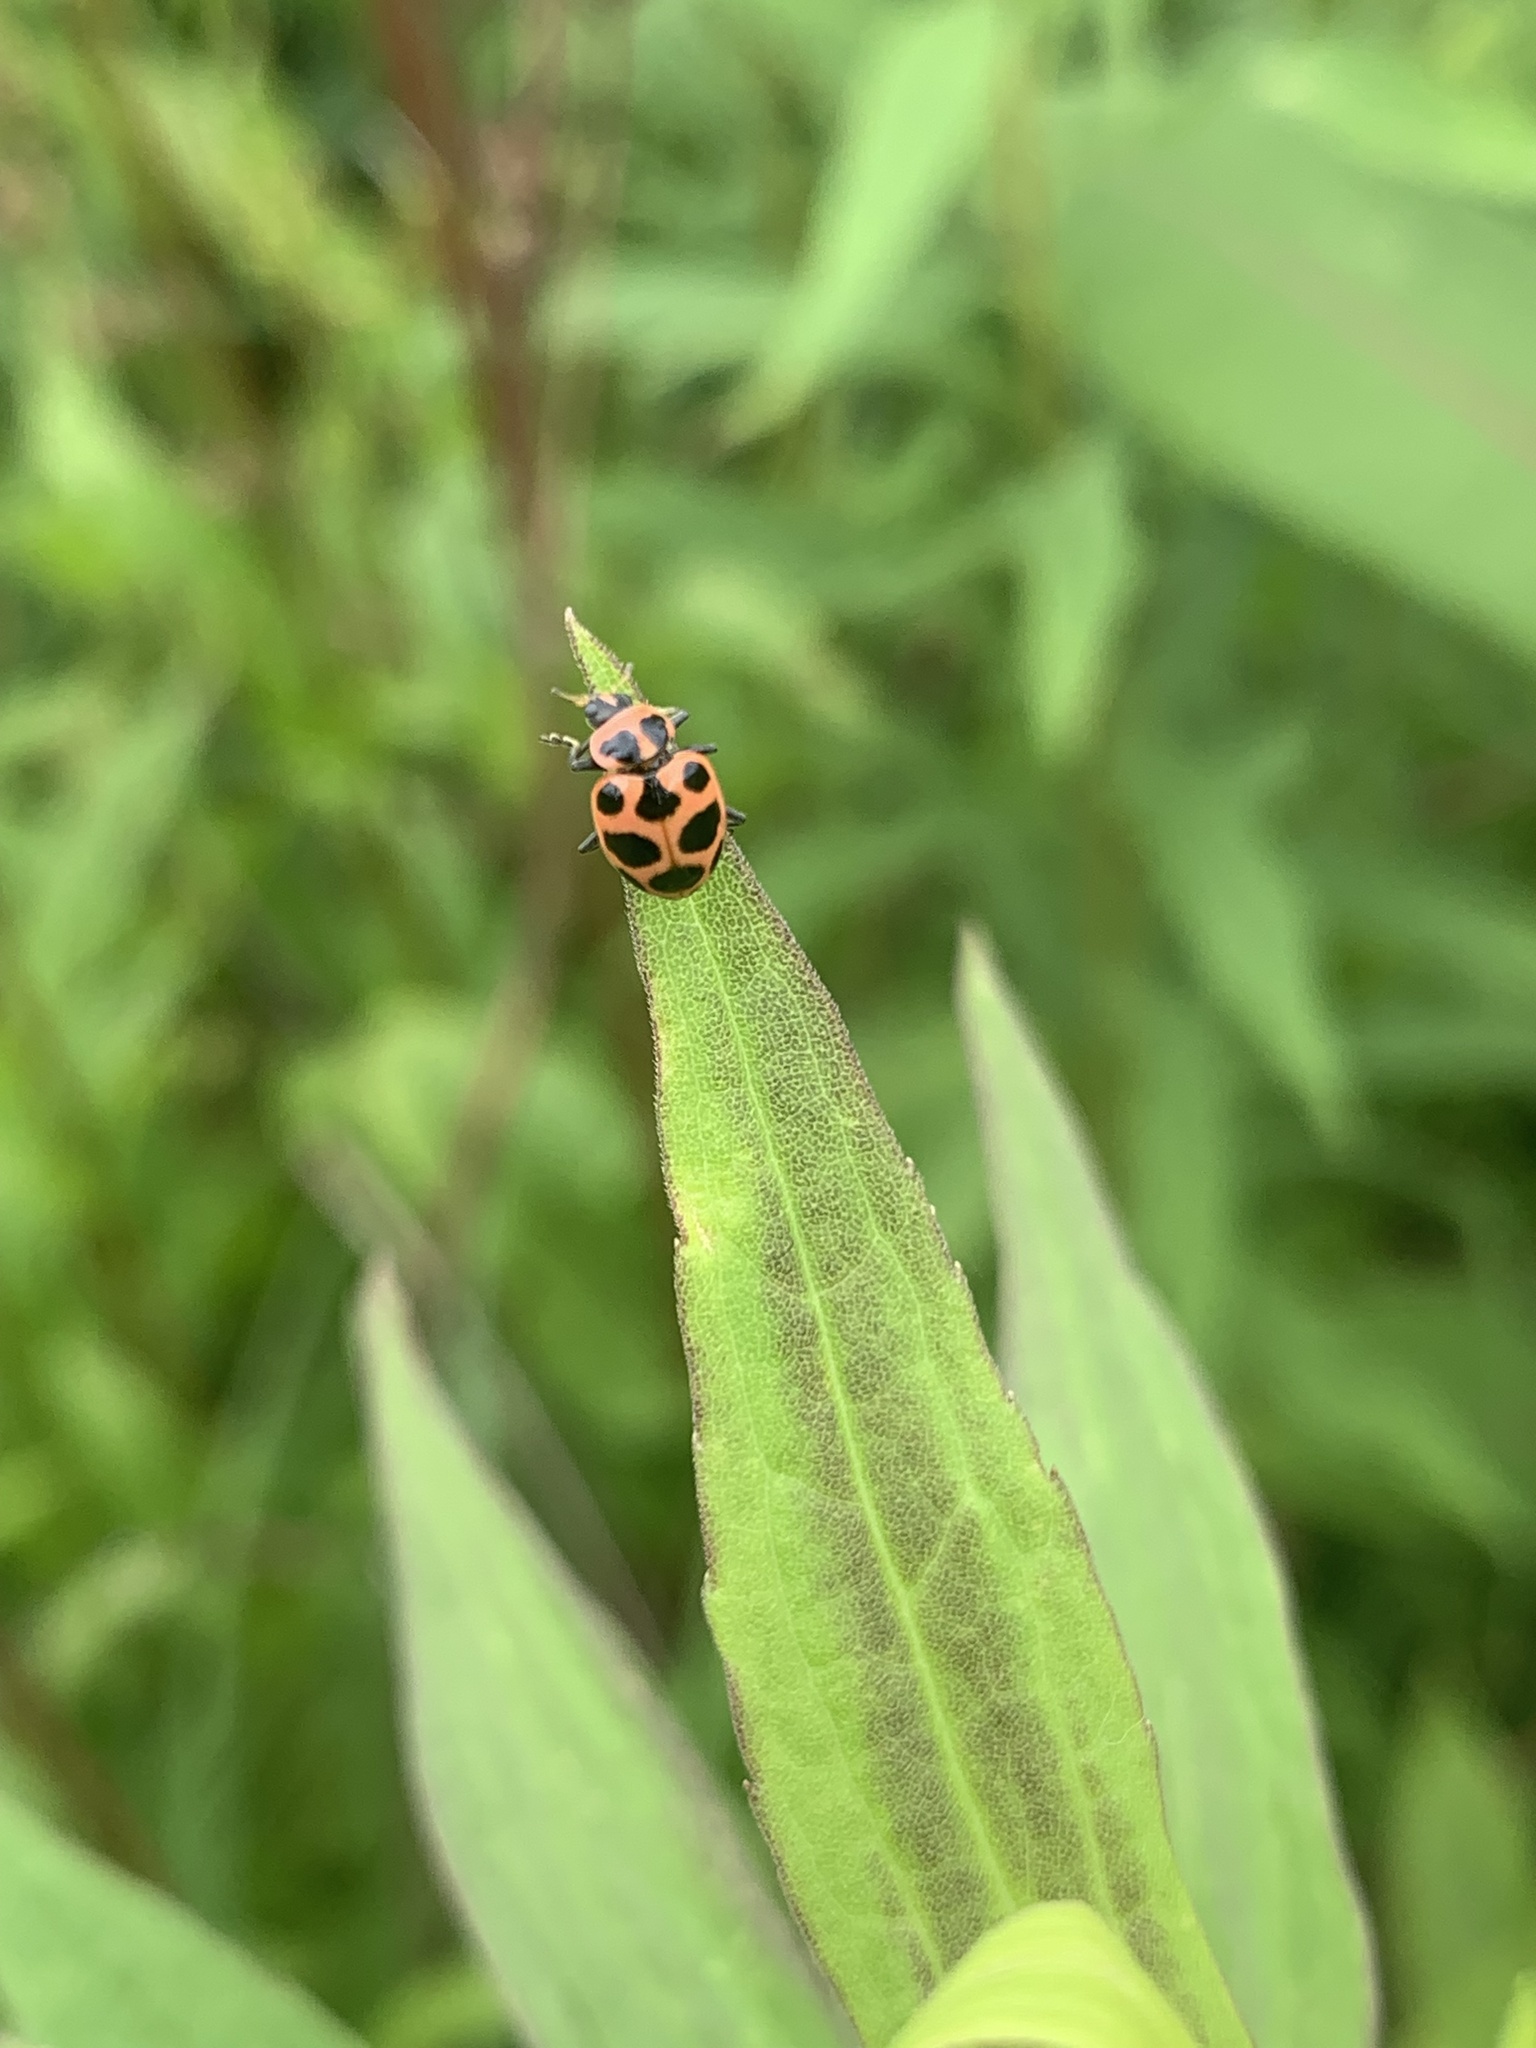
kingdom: Animalia
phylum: Arthropoda
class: Insecta
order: Coleoptera
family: Coccinellidae
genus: Coleomegilla
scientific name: Coleomegilla maculata
